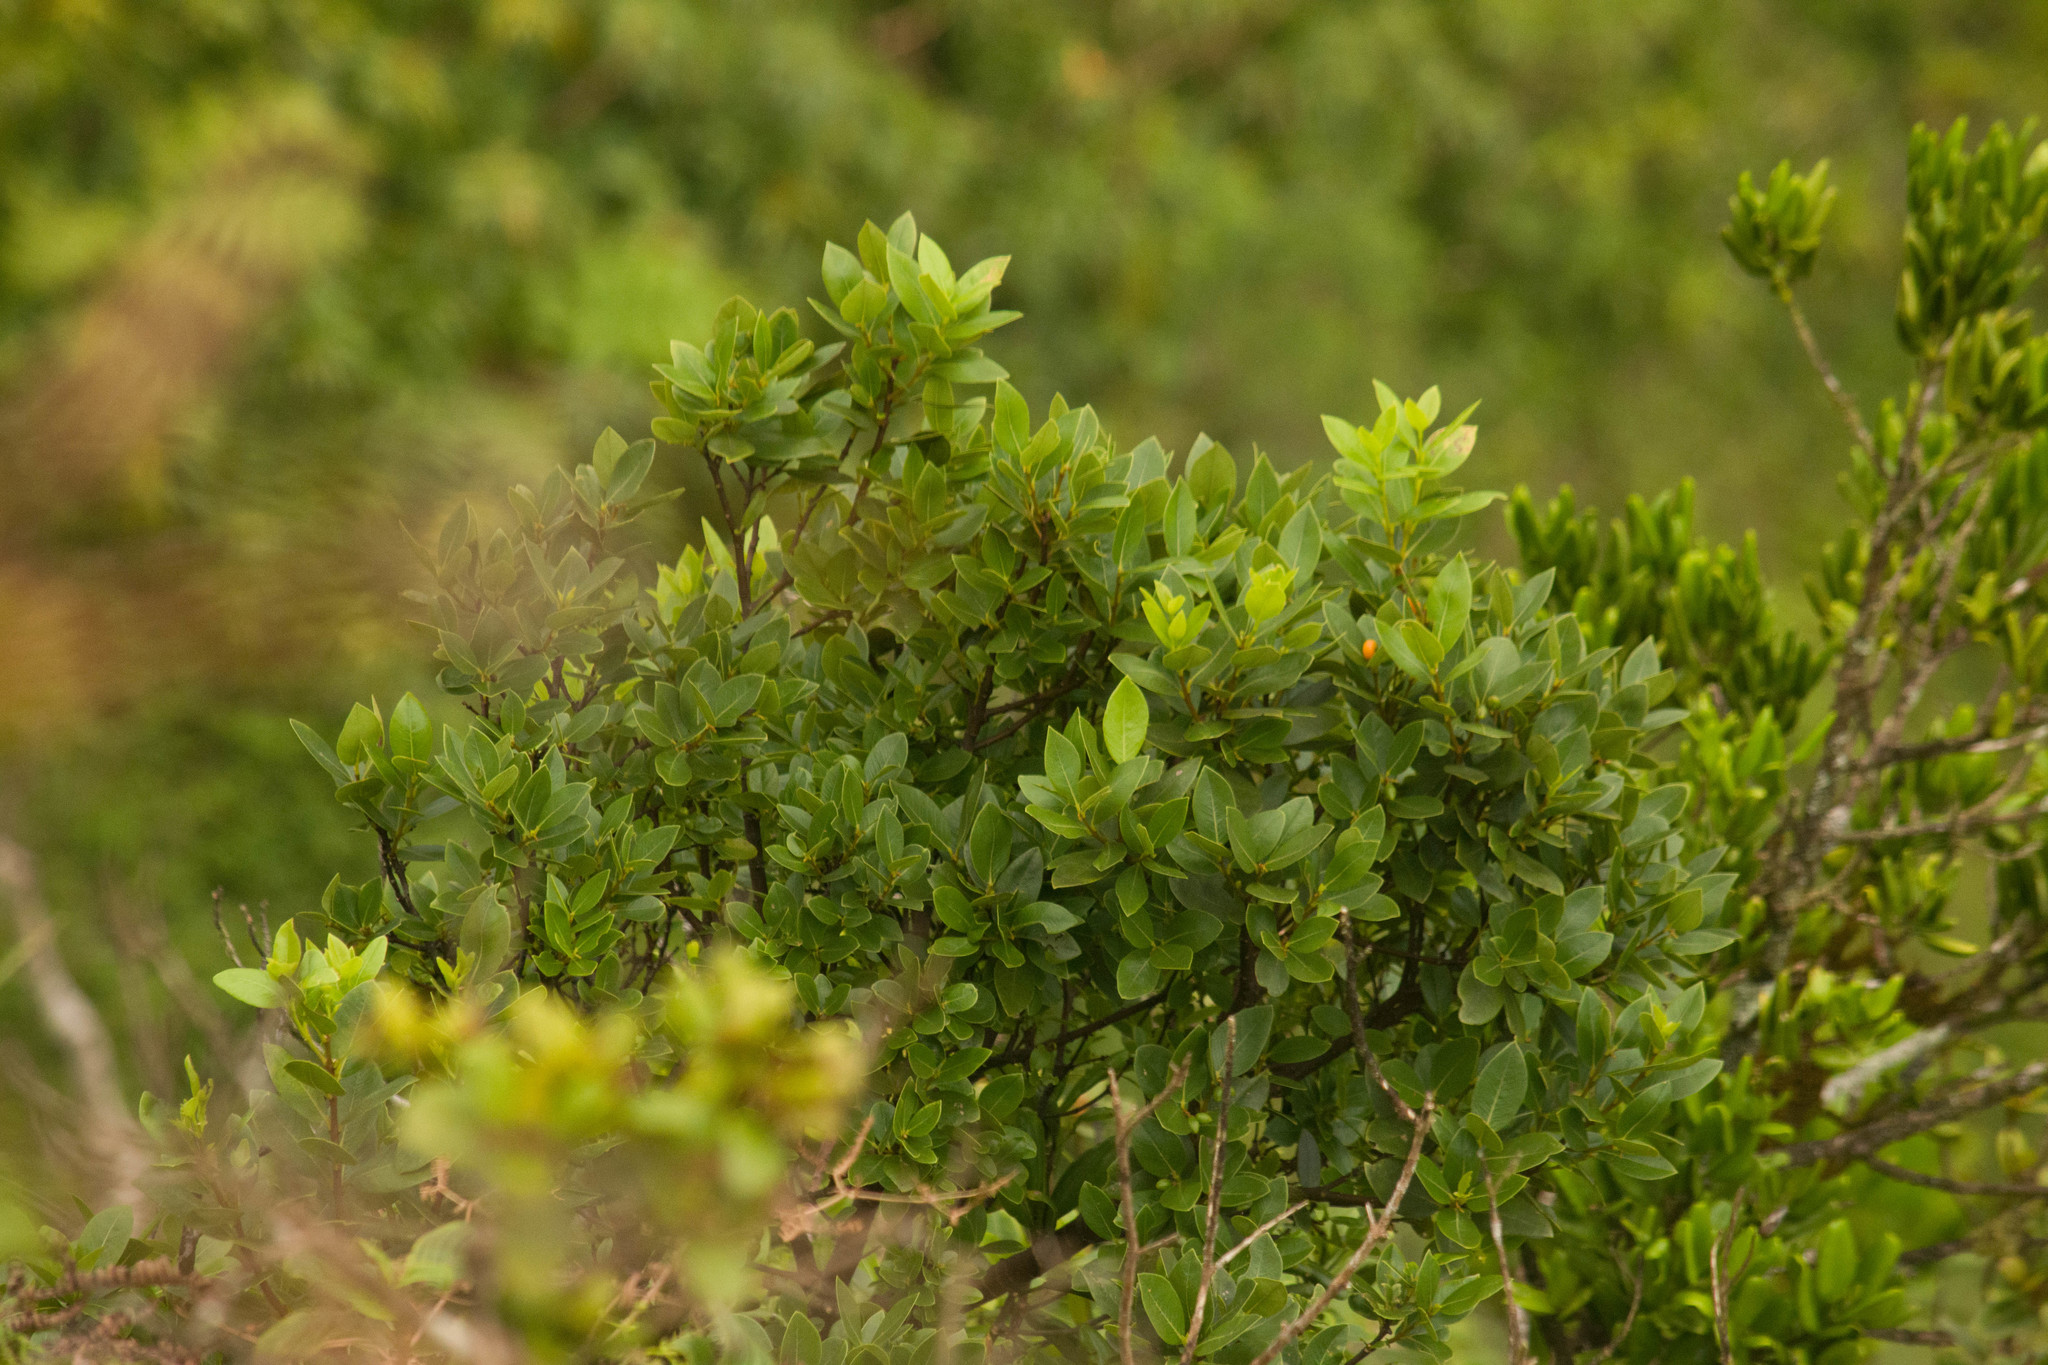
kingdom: Plantae
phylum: Tracheophyta
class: Magnoliopsida
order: Malvales
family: Thymelaeaceae
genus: Wikstroemia
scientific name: Wikstroemia oahuensis
